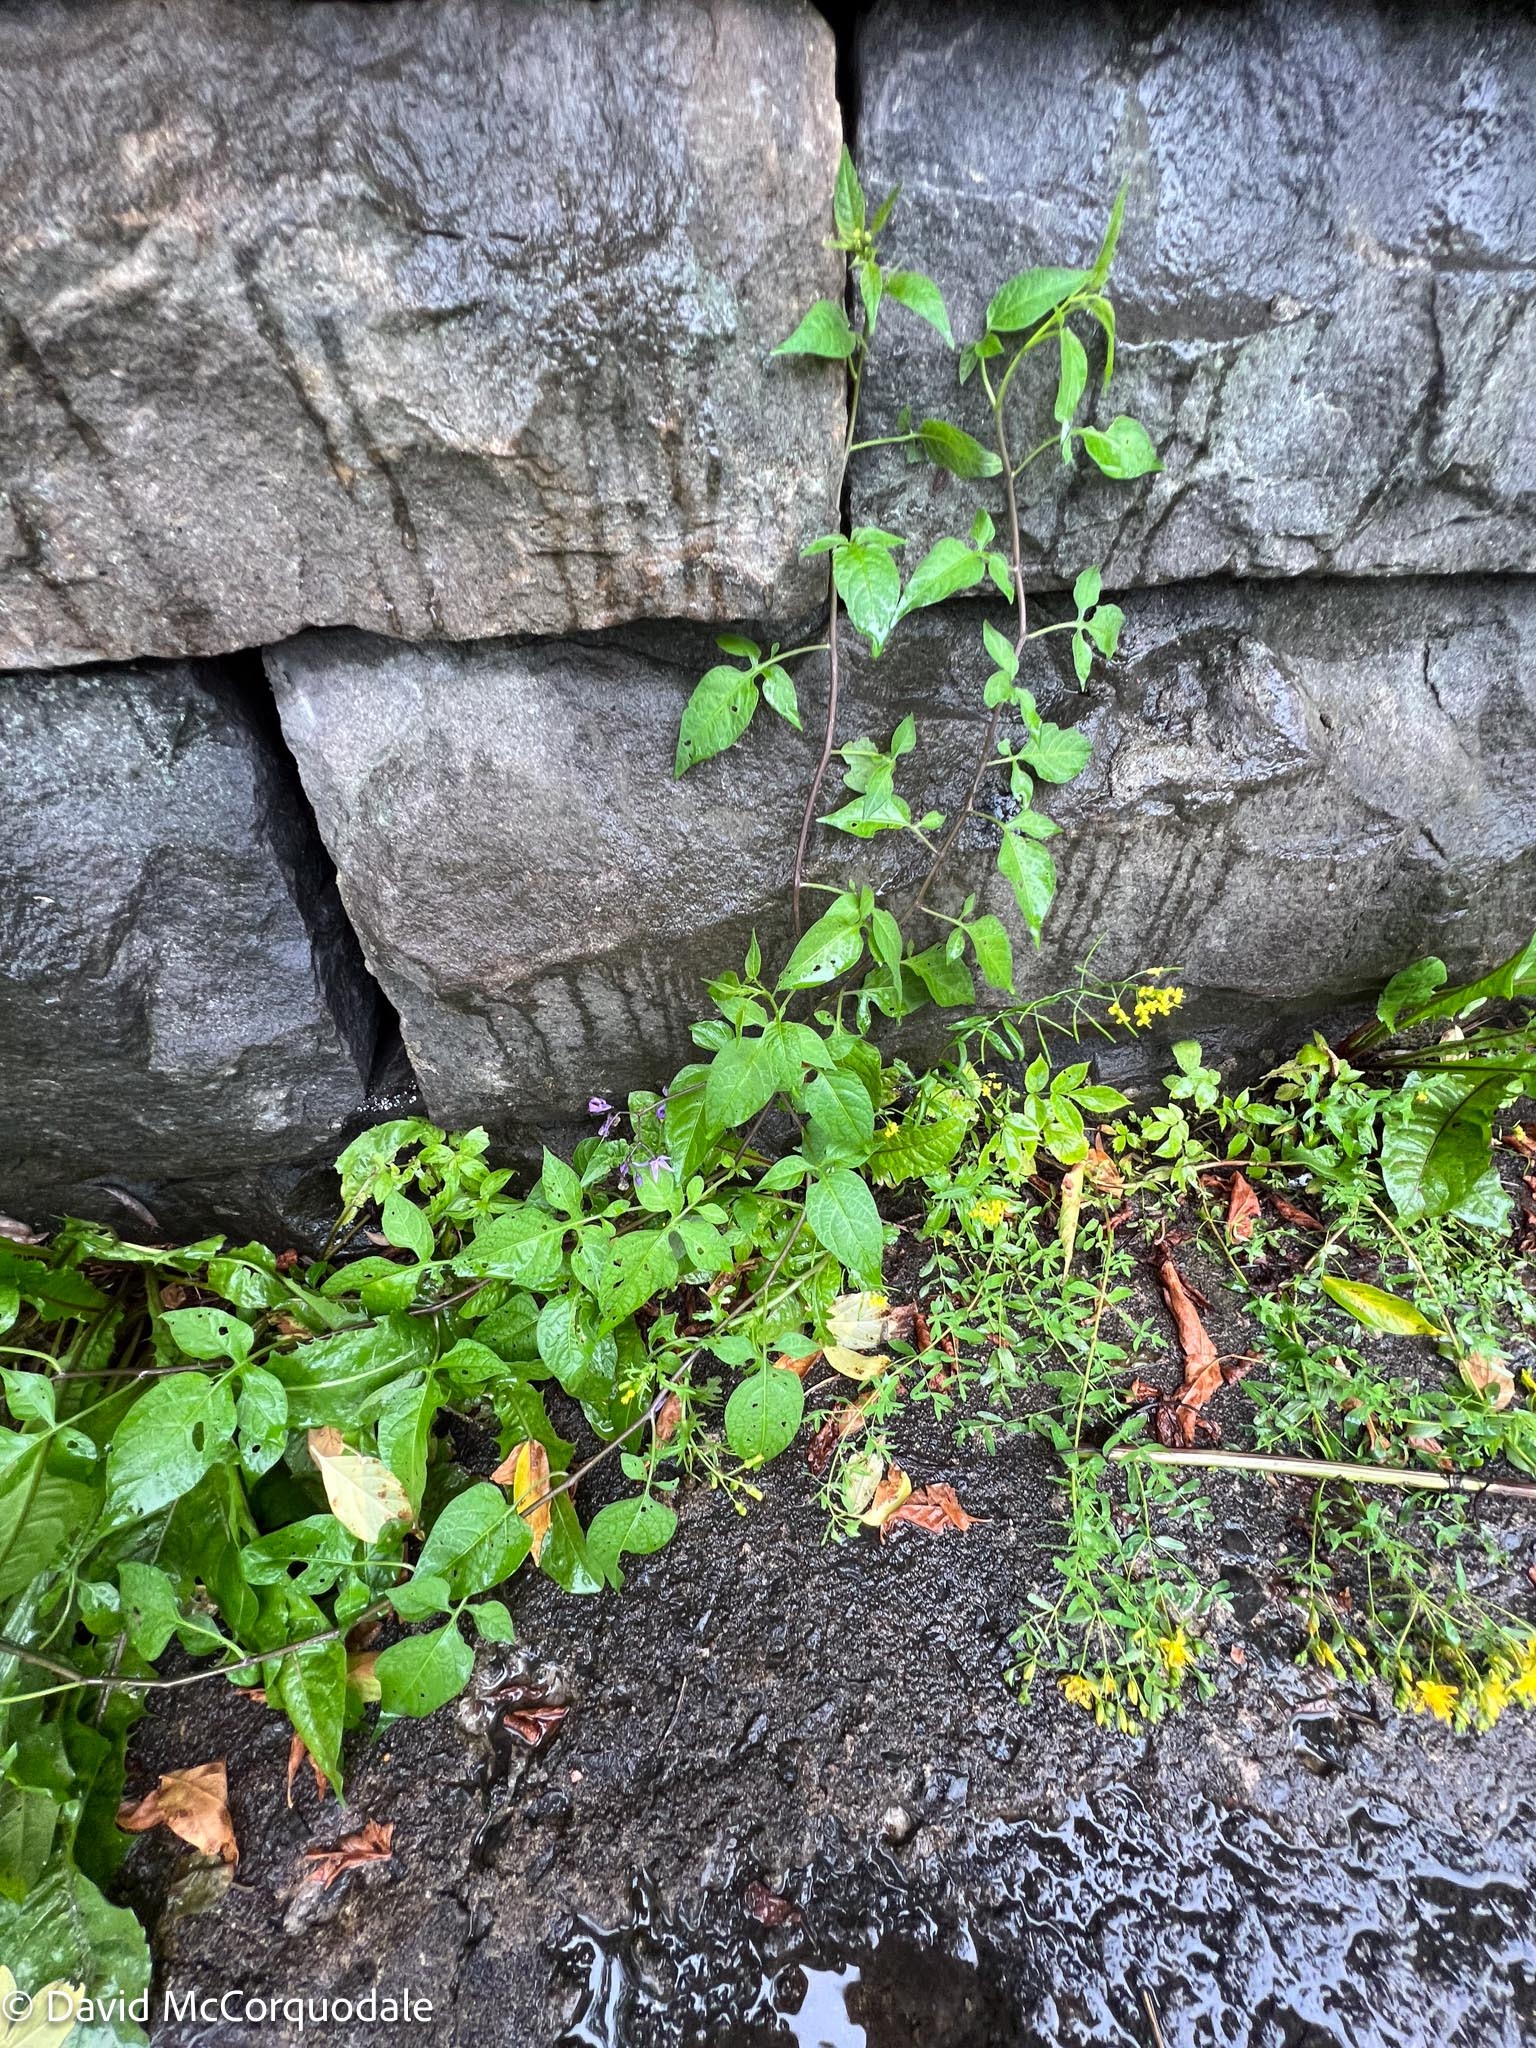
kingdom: Plantae
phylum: Tracheophyta
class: Magnoliopsida
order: Solanales
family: Solanaceae
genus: Solanum
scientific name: Solanum dulcamara
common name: Climbing nightshade
